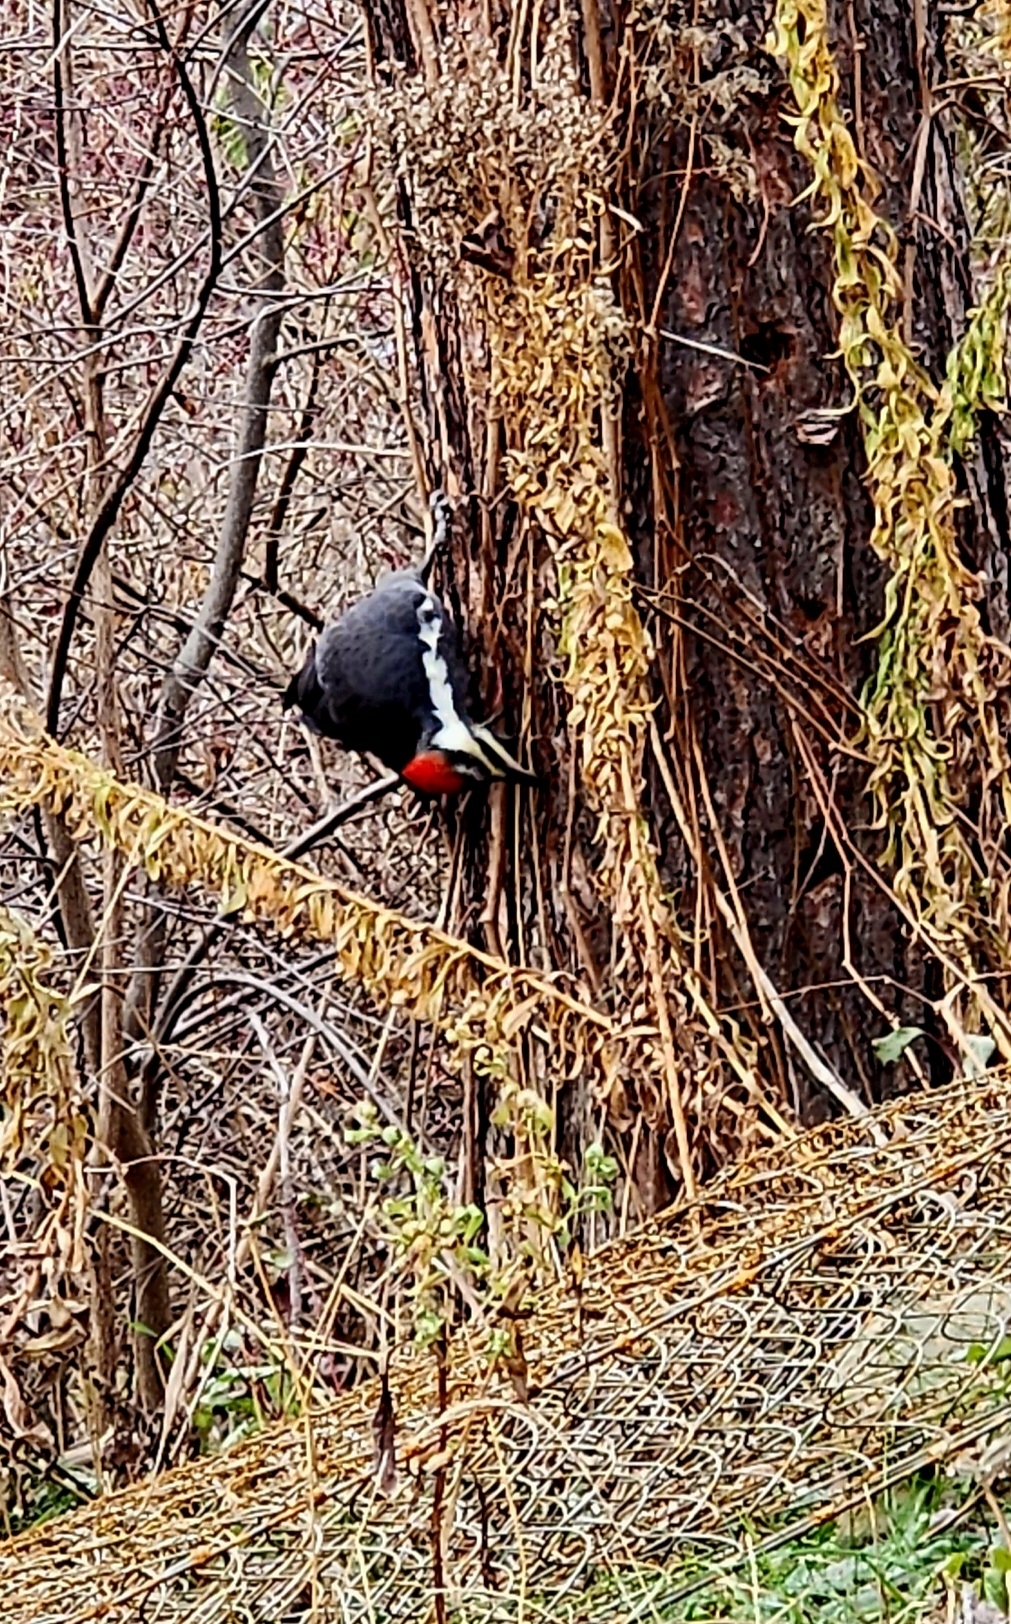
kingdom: Animalia
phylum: Chordata
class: Aves
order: Piciformes
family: Picidae
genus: Dryocopus
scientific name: Dryocopus pileatus
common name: Pileated woodpecker
